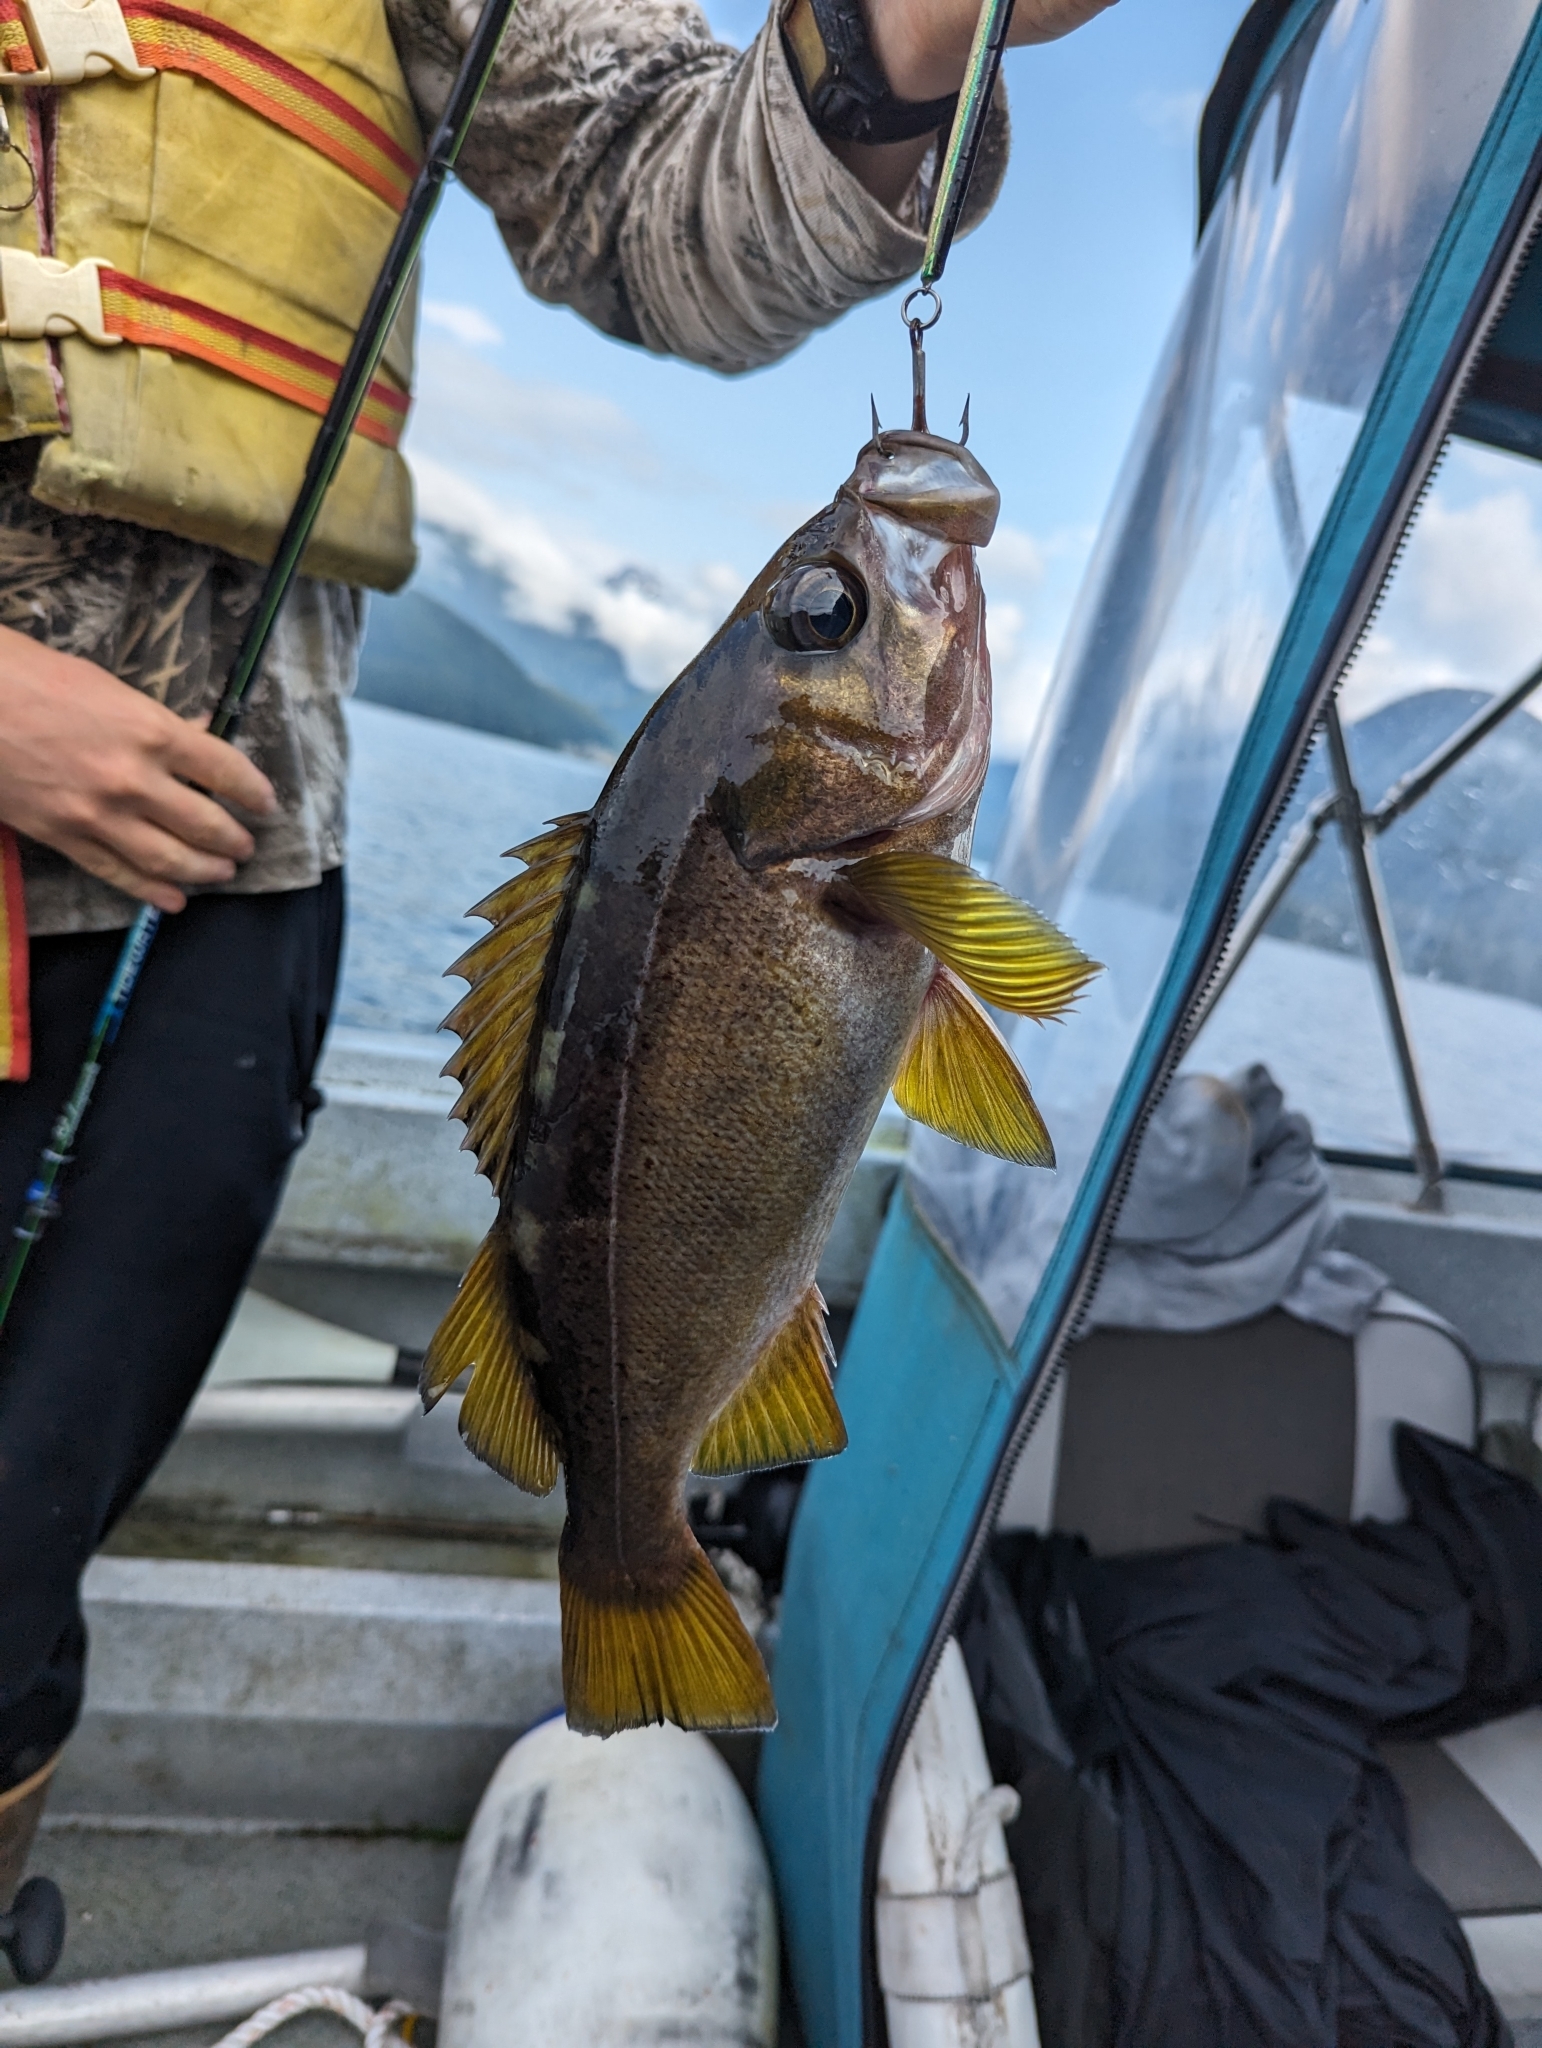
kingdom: Animalia
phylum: Chordata
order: Scorpaeniformes
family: Sebastidae
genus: Sebastes
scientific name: Sebastes flavidus
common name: Yellowtail rockfish
